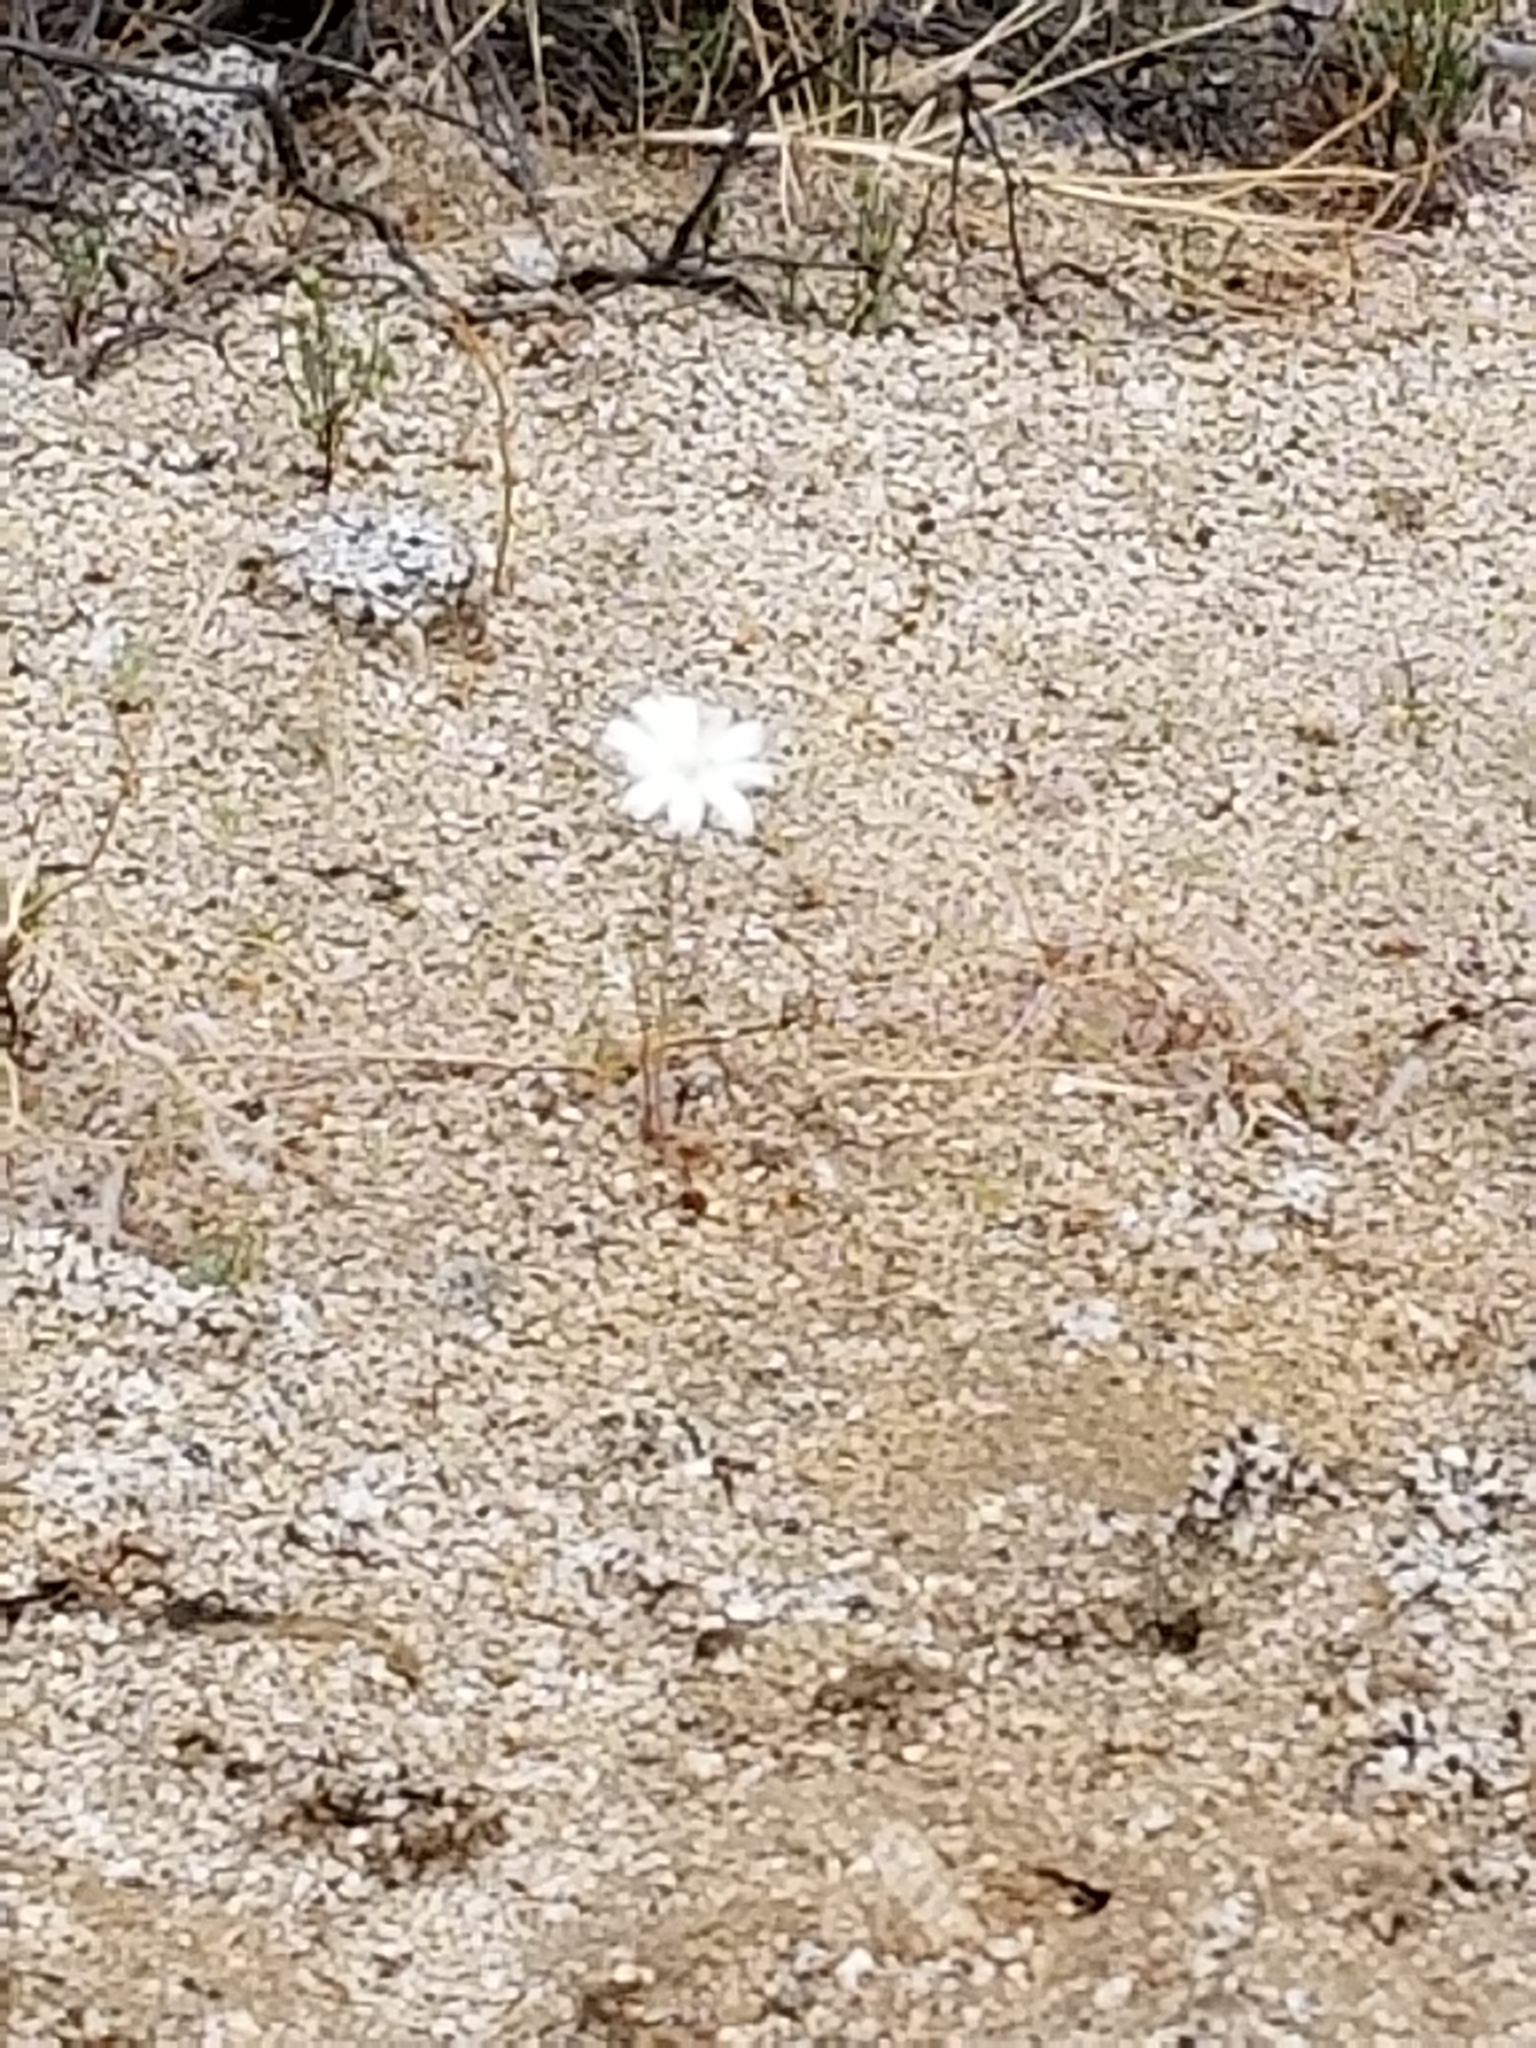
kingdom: Plantae
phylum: Tracheophyta
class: Magnoliopsida
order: Asterales
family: Asteraceae
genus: Rafinesquia
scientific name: Rafinesquia neomexicana
